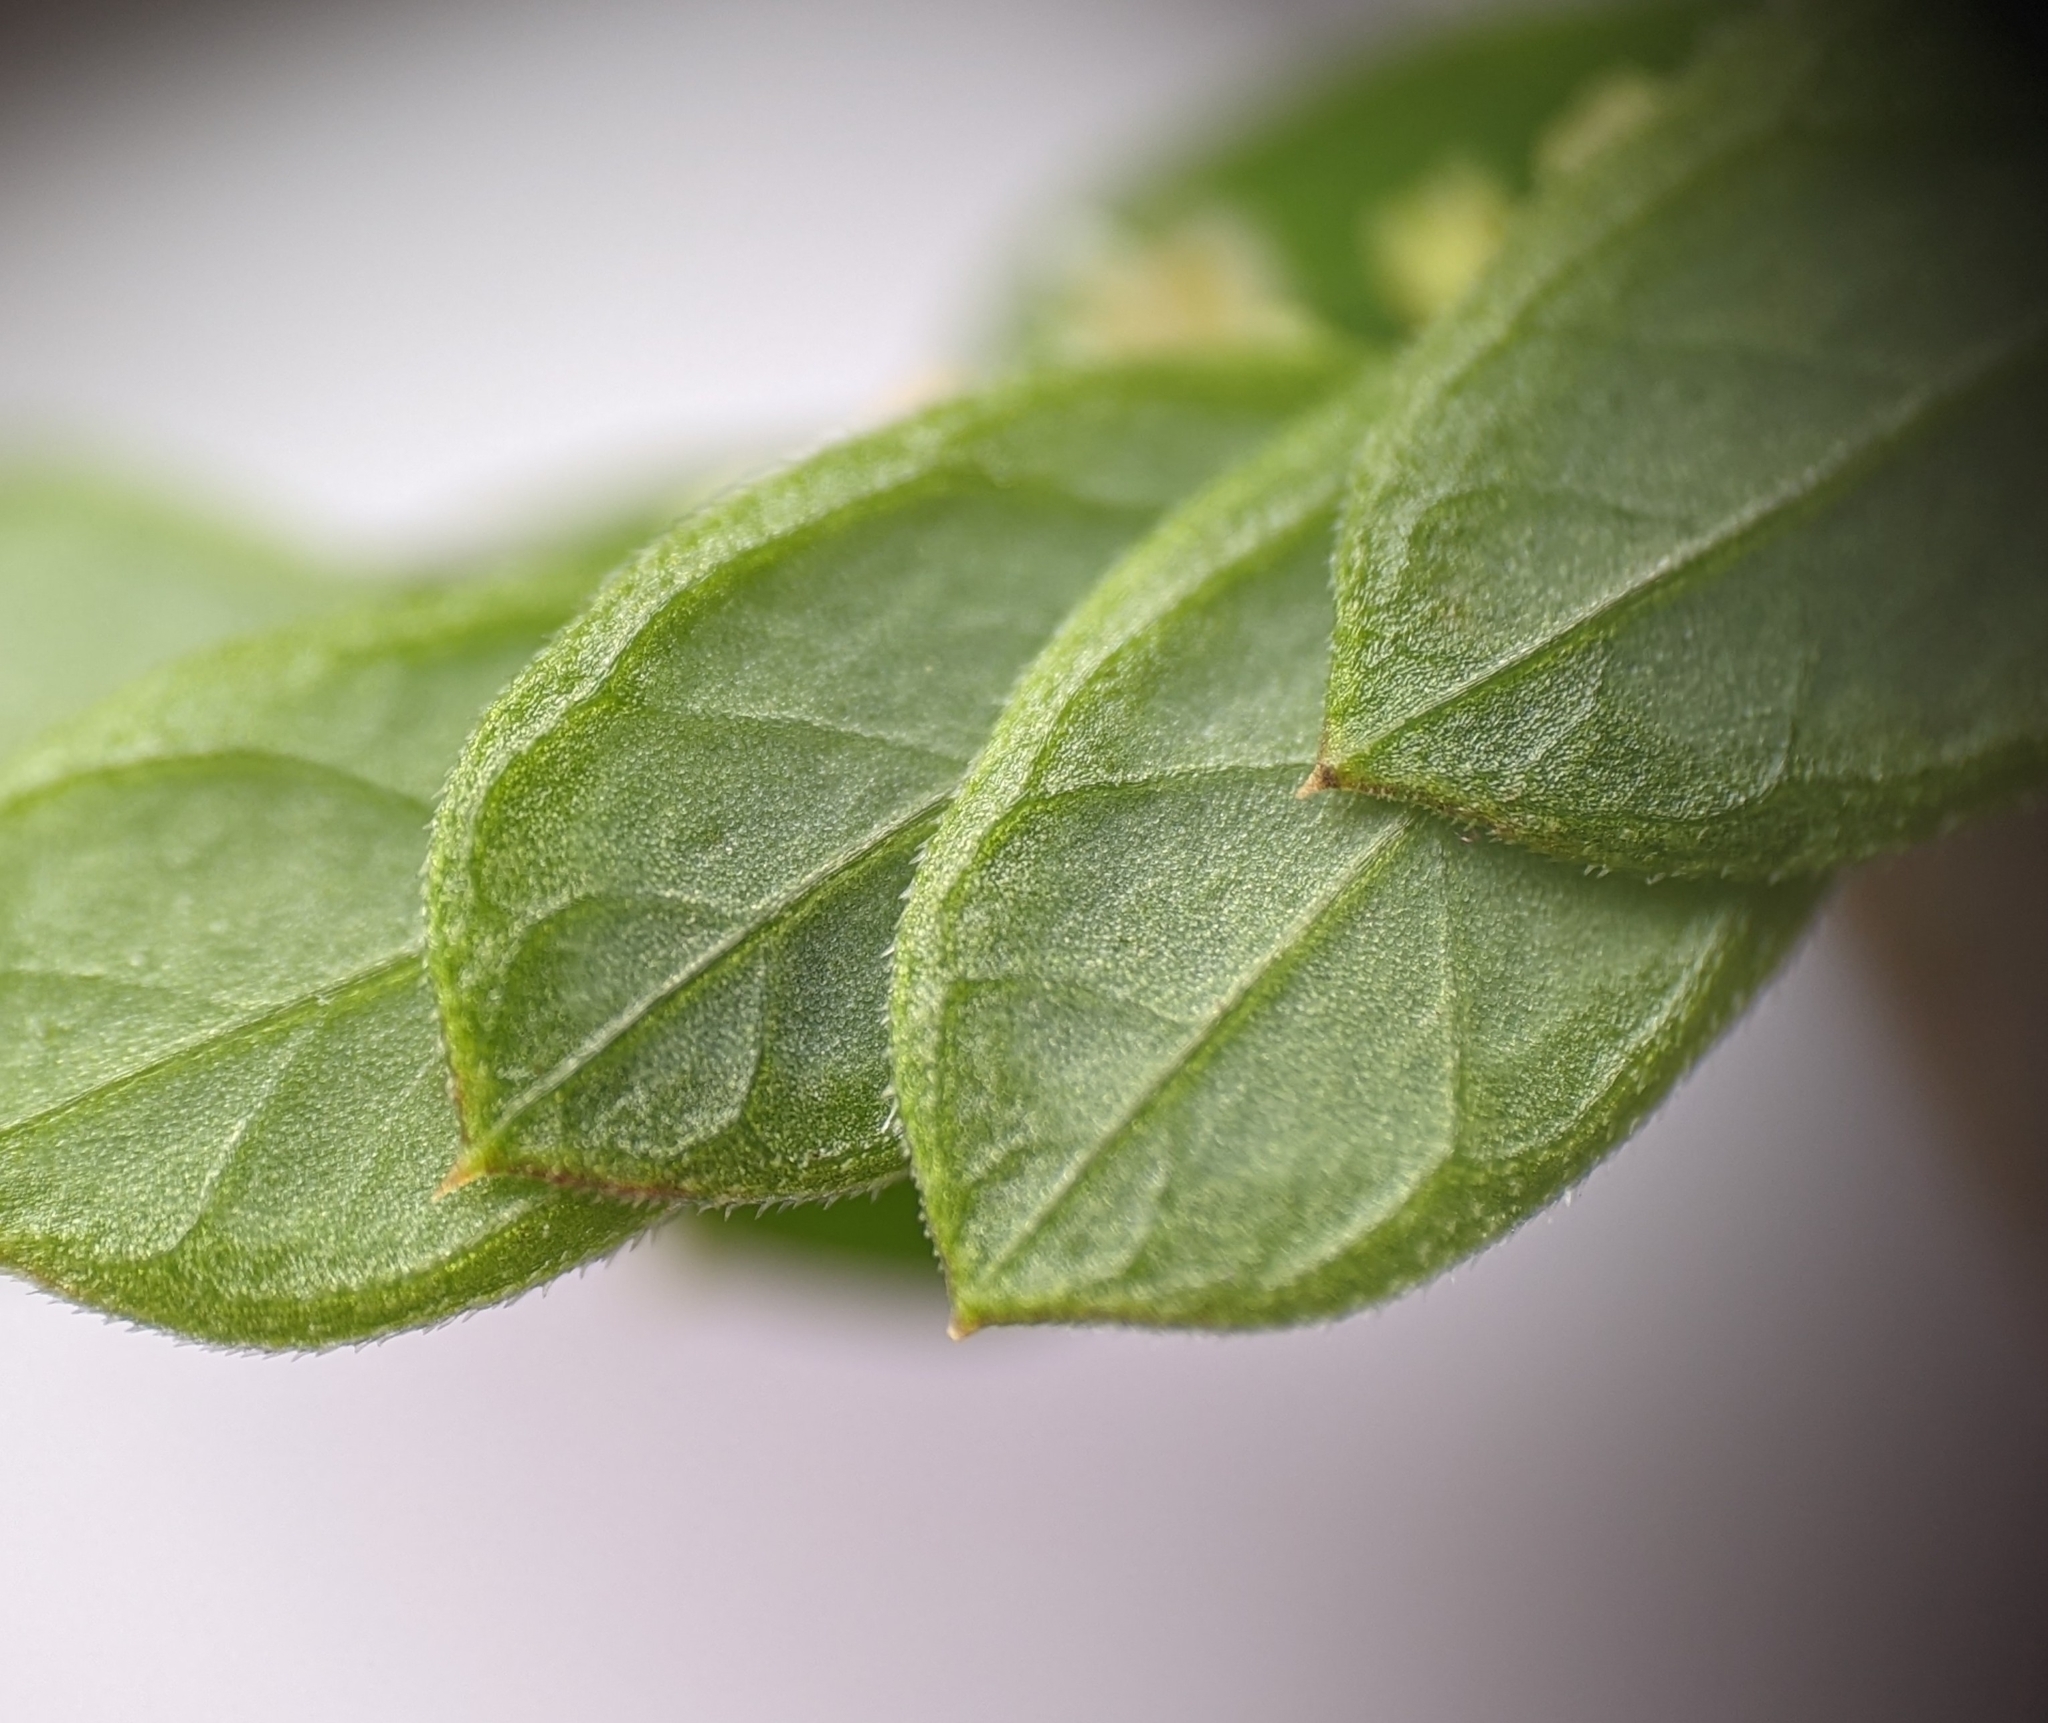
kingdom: Plantae
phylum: Tracheophyta
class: Magnoliopsida
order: Malpighiales
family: Phyllanthaceae
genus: Phyllanthus
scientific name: Phyllanthus urinaria
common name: Chamber bitter
